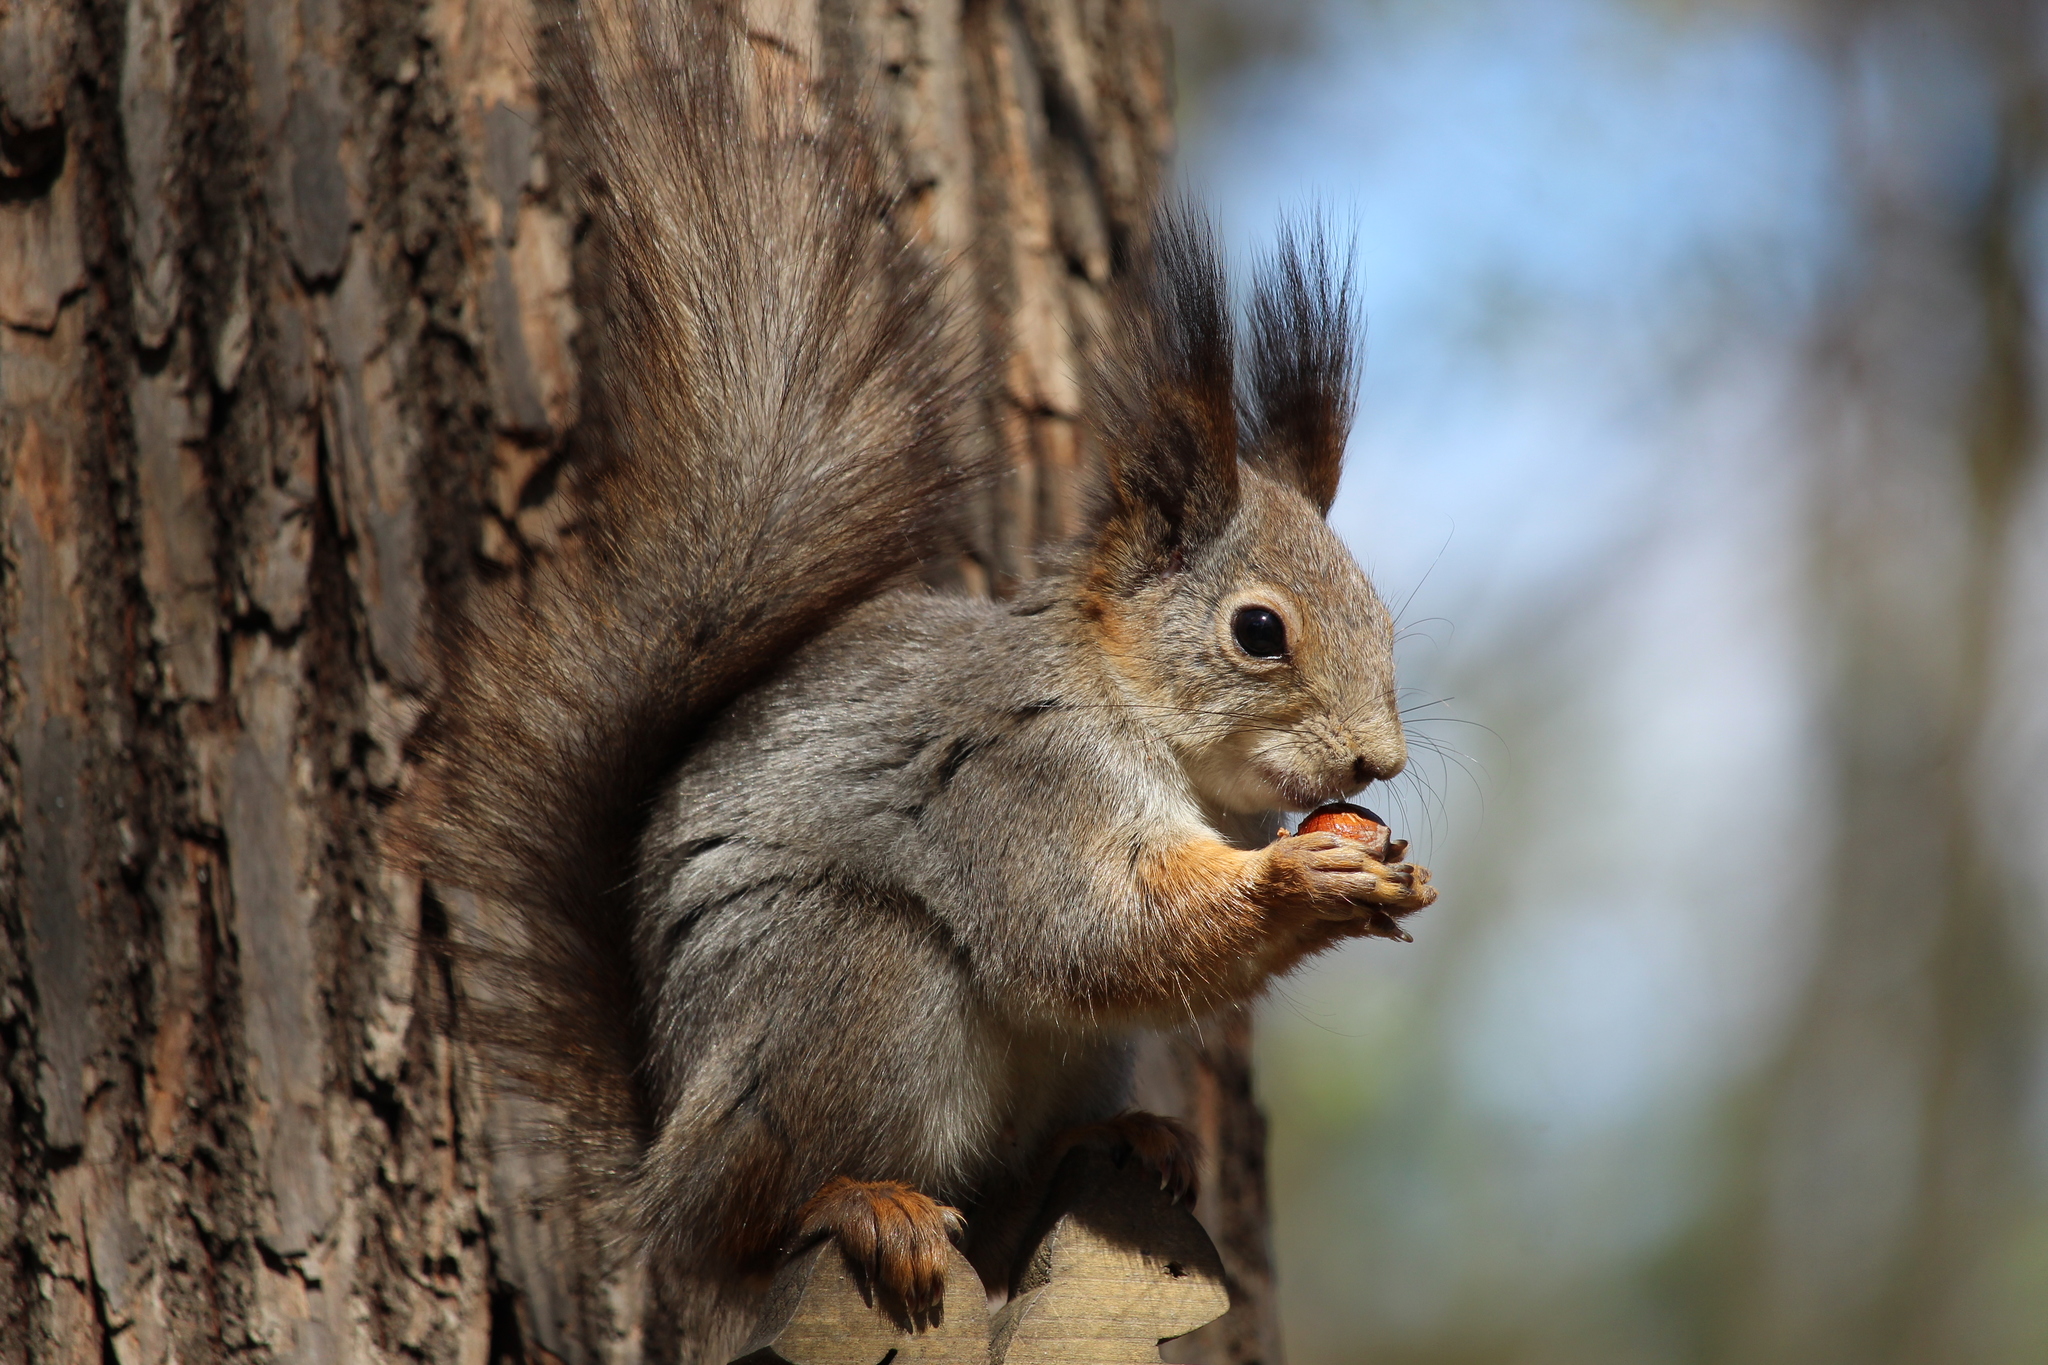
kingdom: Animalia
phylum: Chordata
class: Mammalia
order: Rodentia
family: Sciuridae
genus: Sciurus
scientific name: Sciurus vulgaris
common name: Eurasian red squirrel
